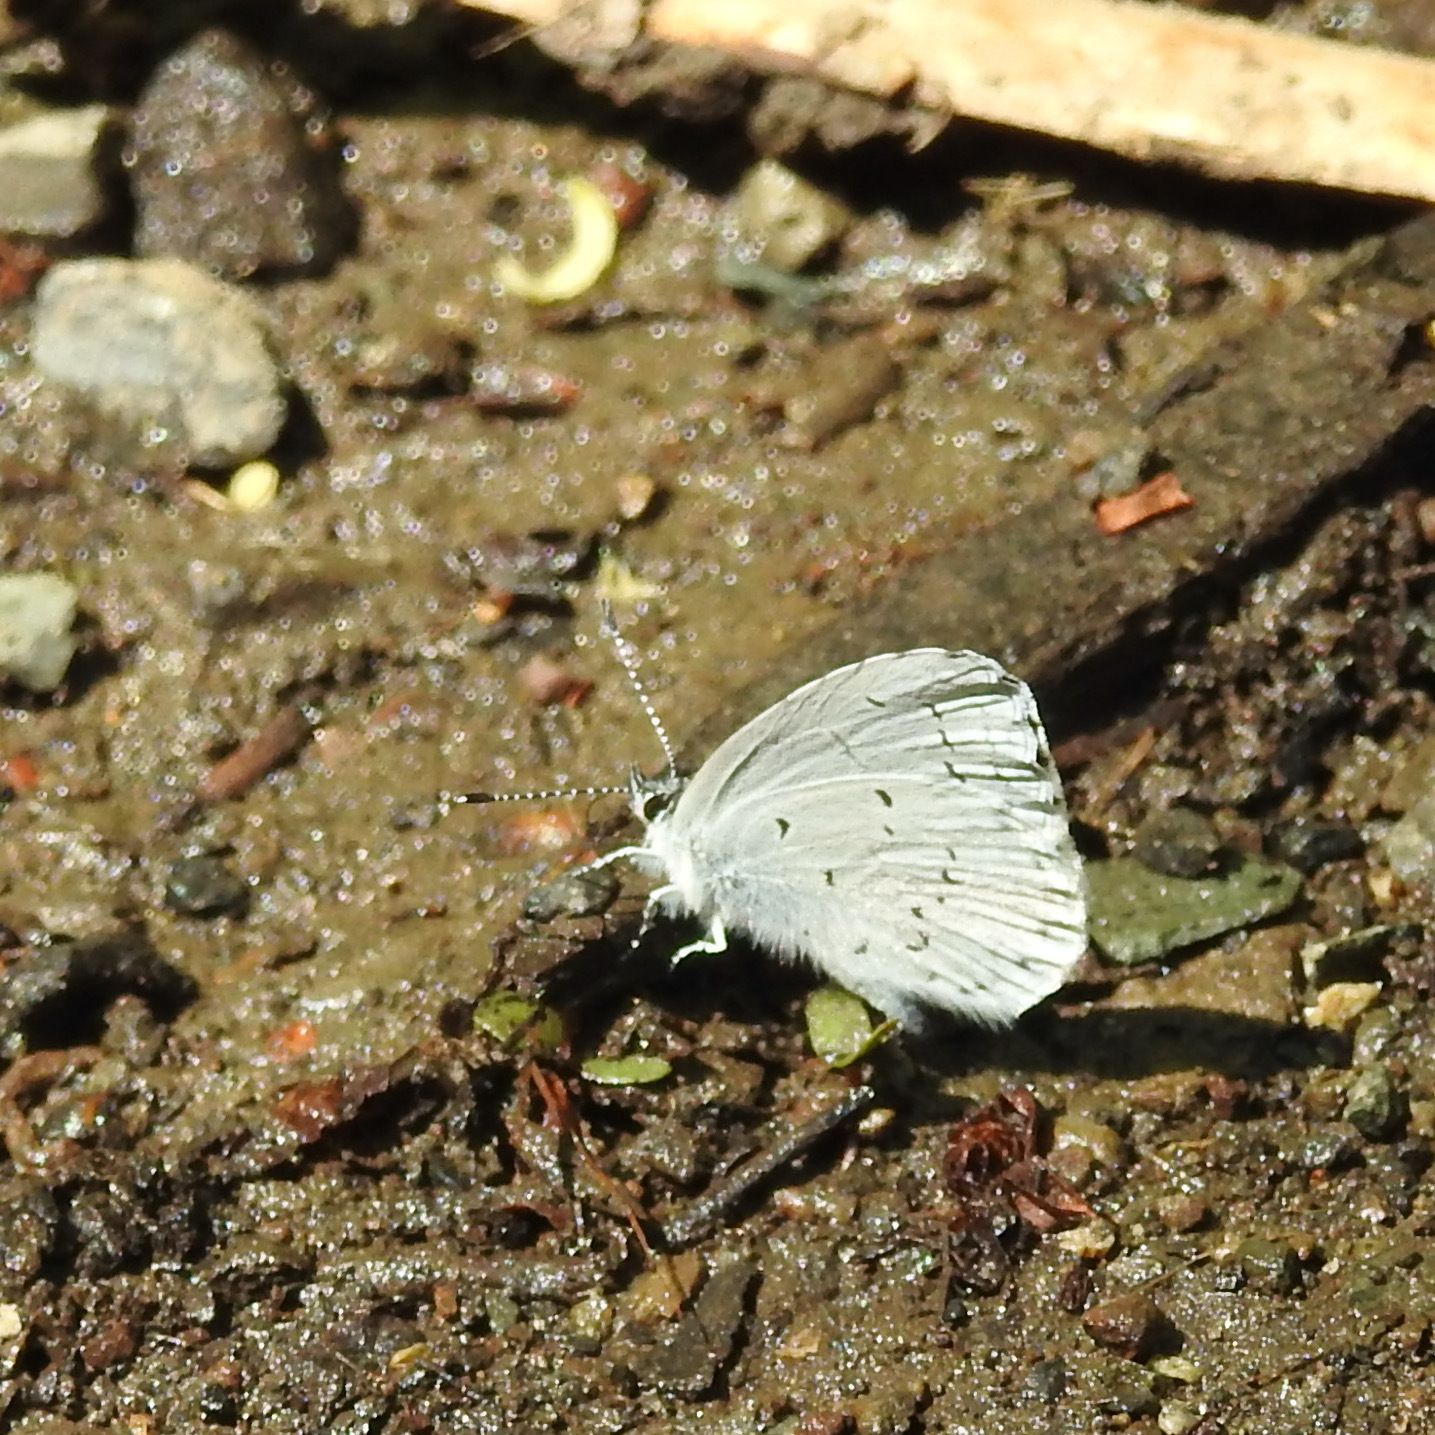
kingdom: Animalia
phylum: Arthropoda
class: Insecta
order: Lepidoptera
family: Lycaenidae
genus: Celastrina
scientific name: Celastrina ladon
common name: Spring azure
